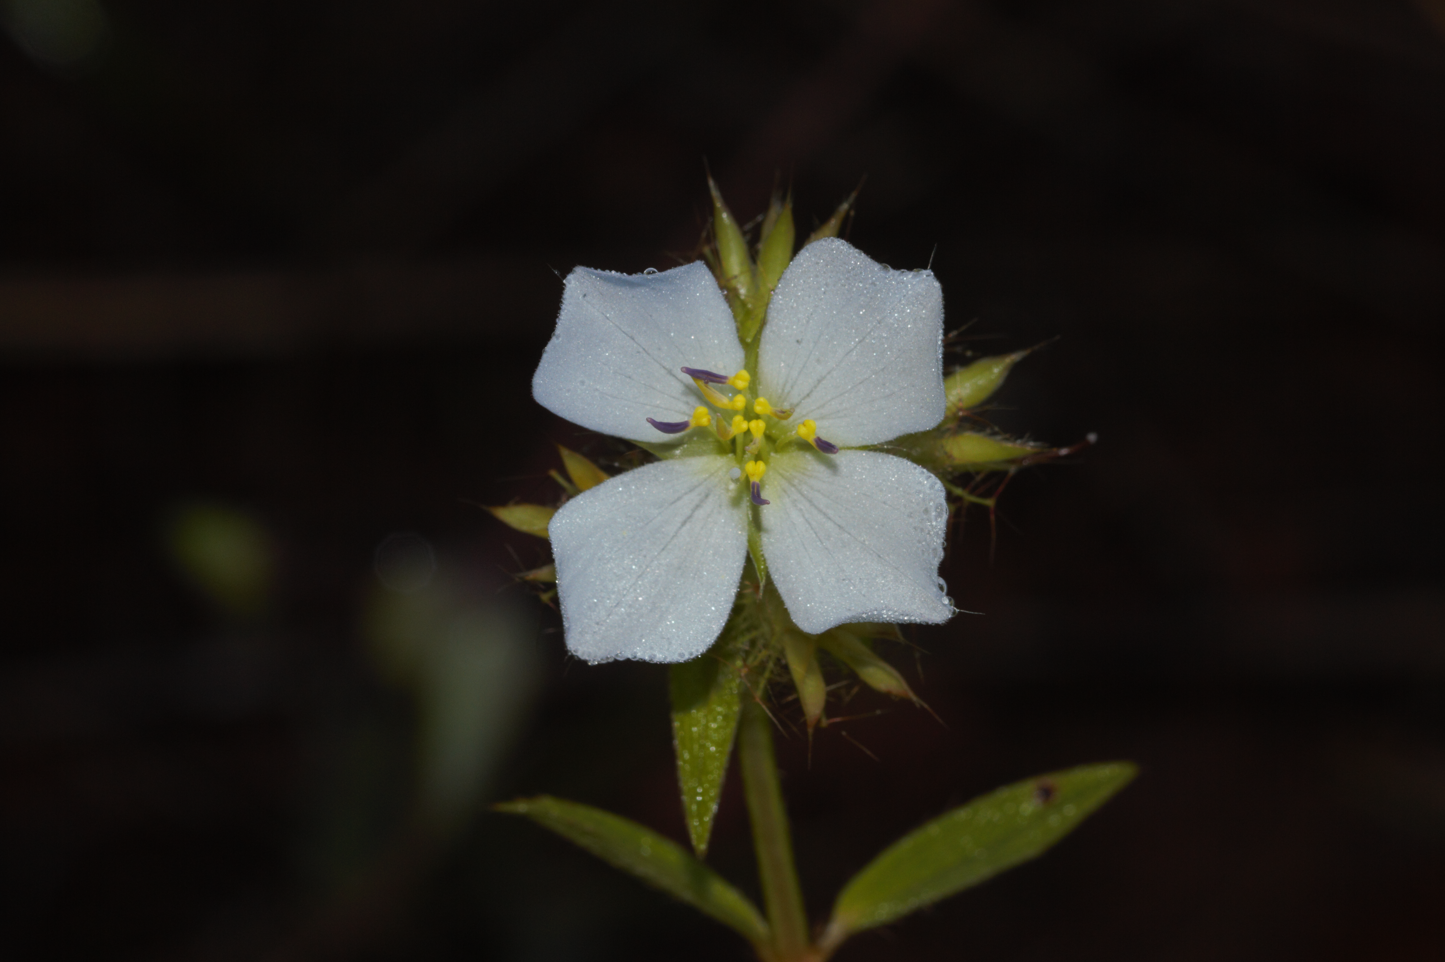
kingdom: Plantae
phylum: Tracheophyta
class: Magnoliopsida
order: Myrtales
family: Melastomataceae
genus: Pterolepis
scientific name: Pterolepis glomerata
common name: False meadowbeauty
